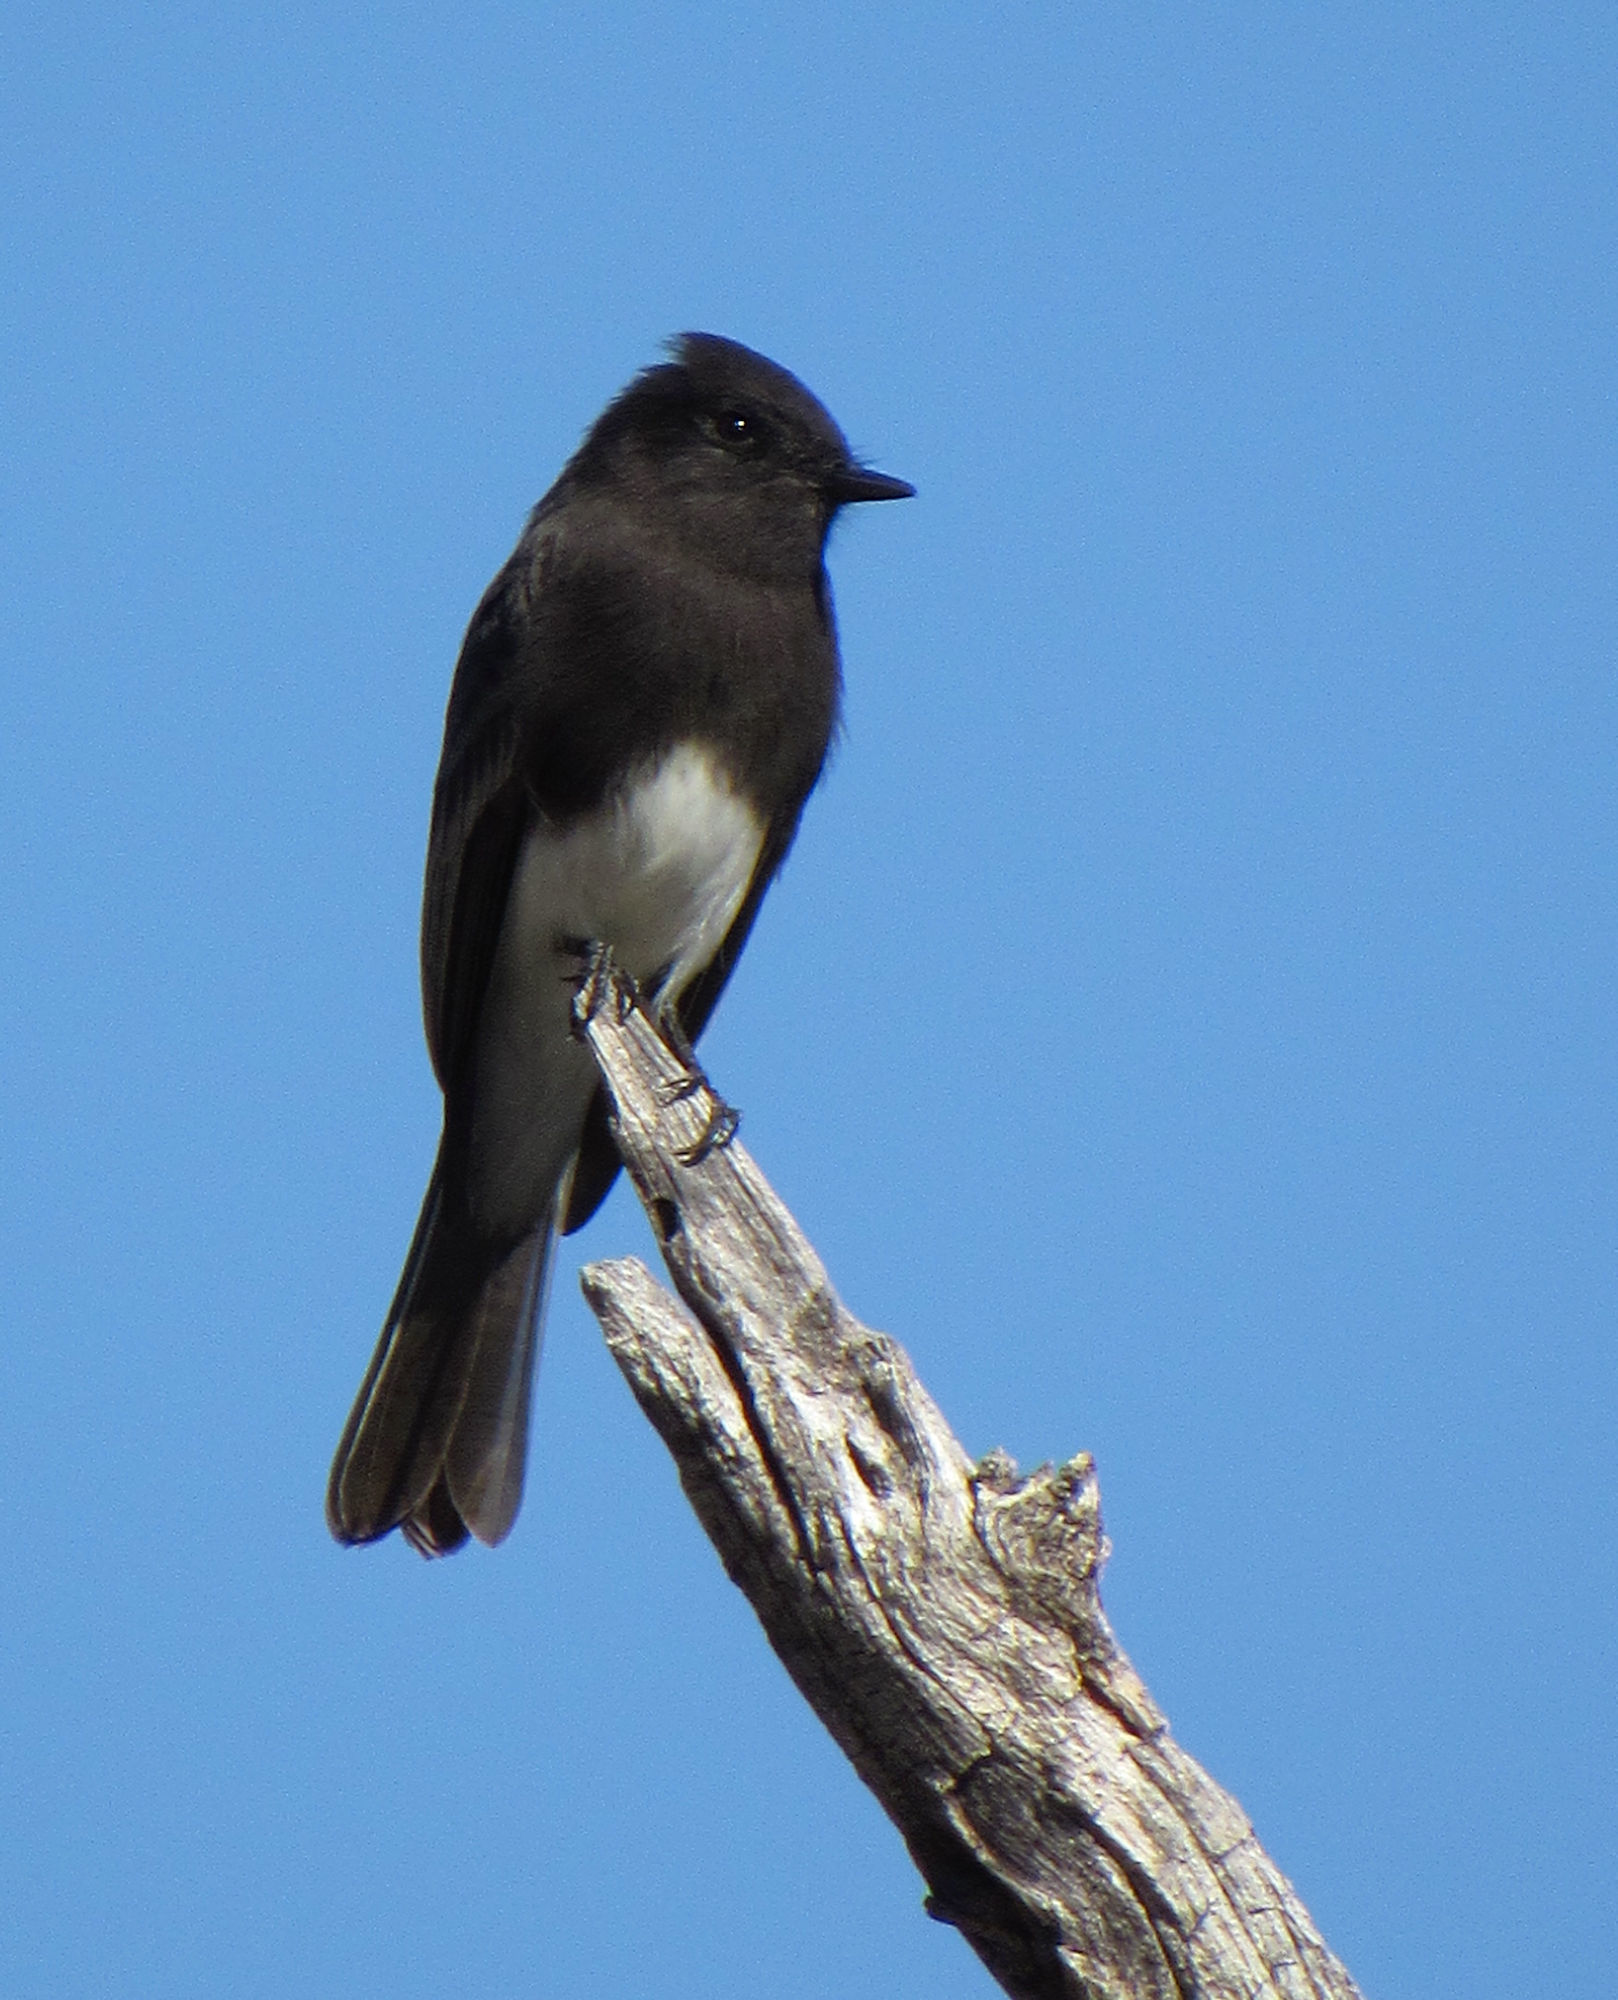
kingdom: Animalia
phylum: Chordata
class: Aves
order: Passeriformes
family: Tyrannidae
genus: Sayornis
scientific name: Sayornis nigricans
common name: Black phoebe
